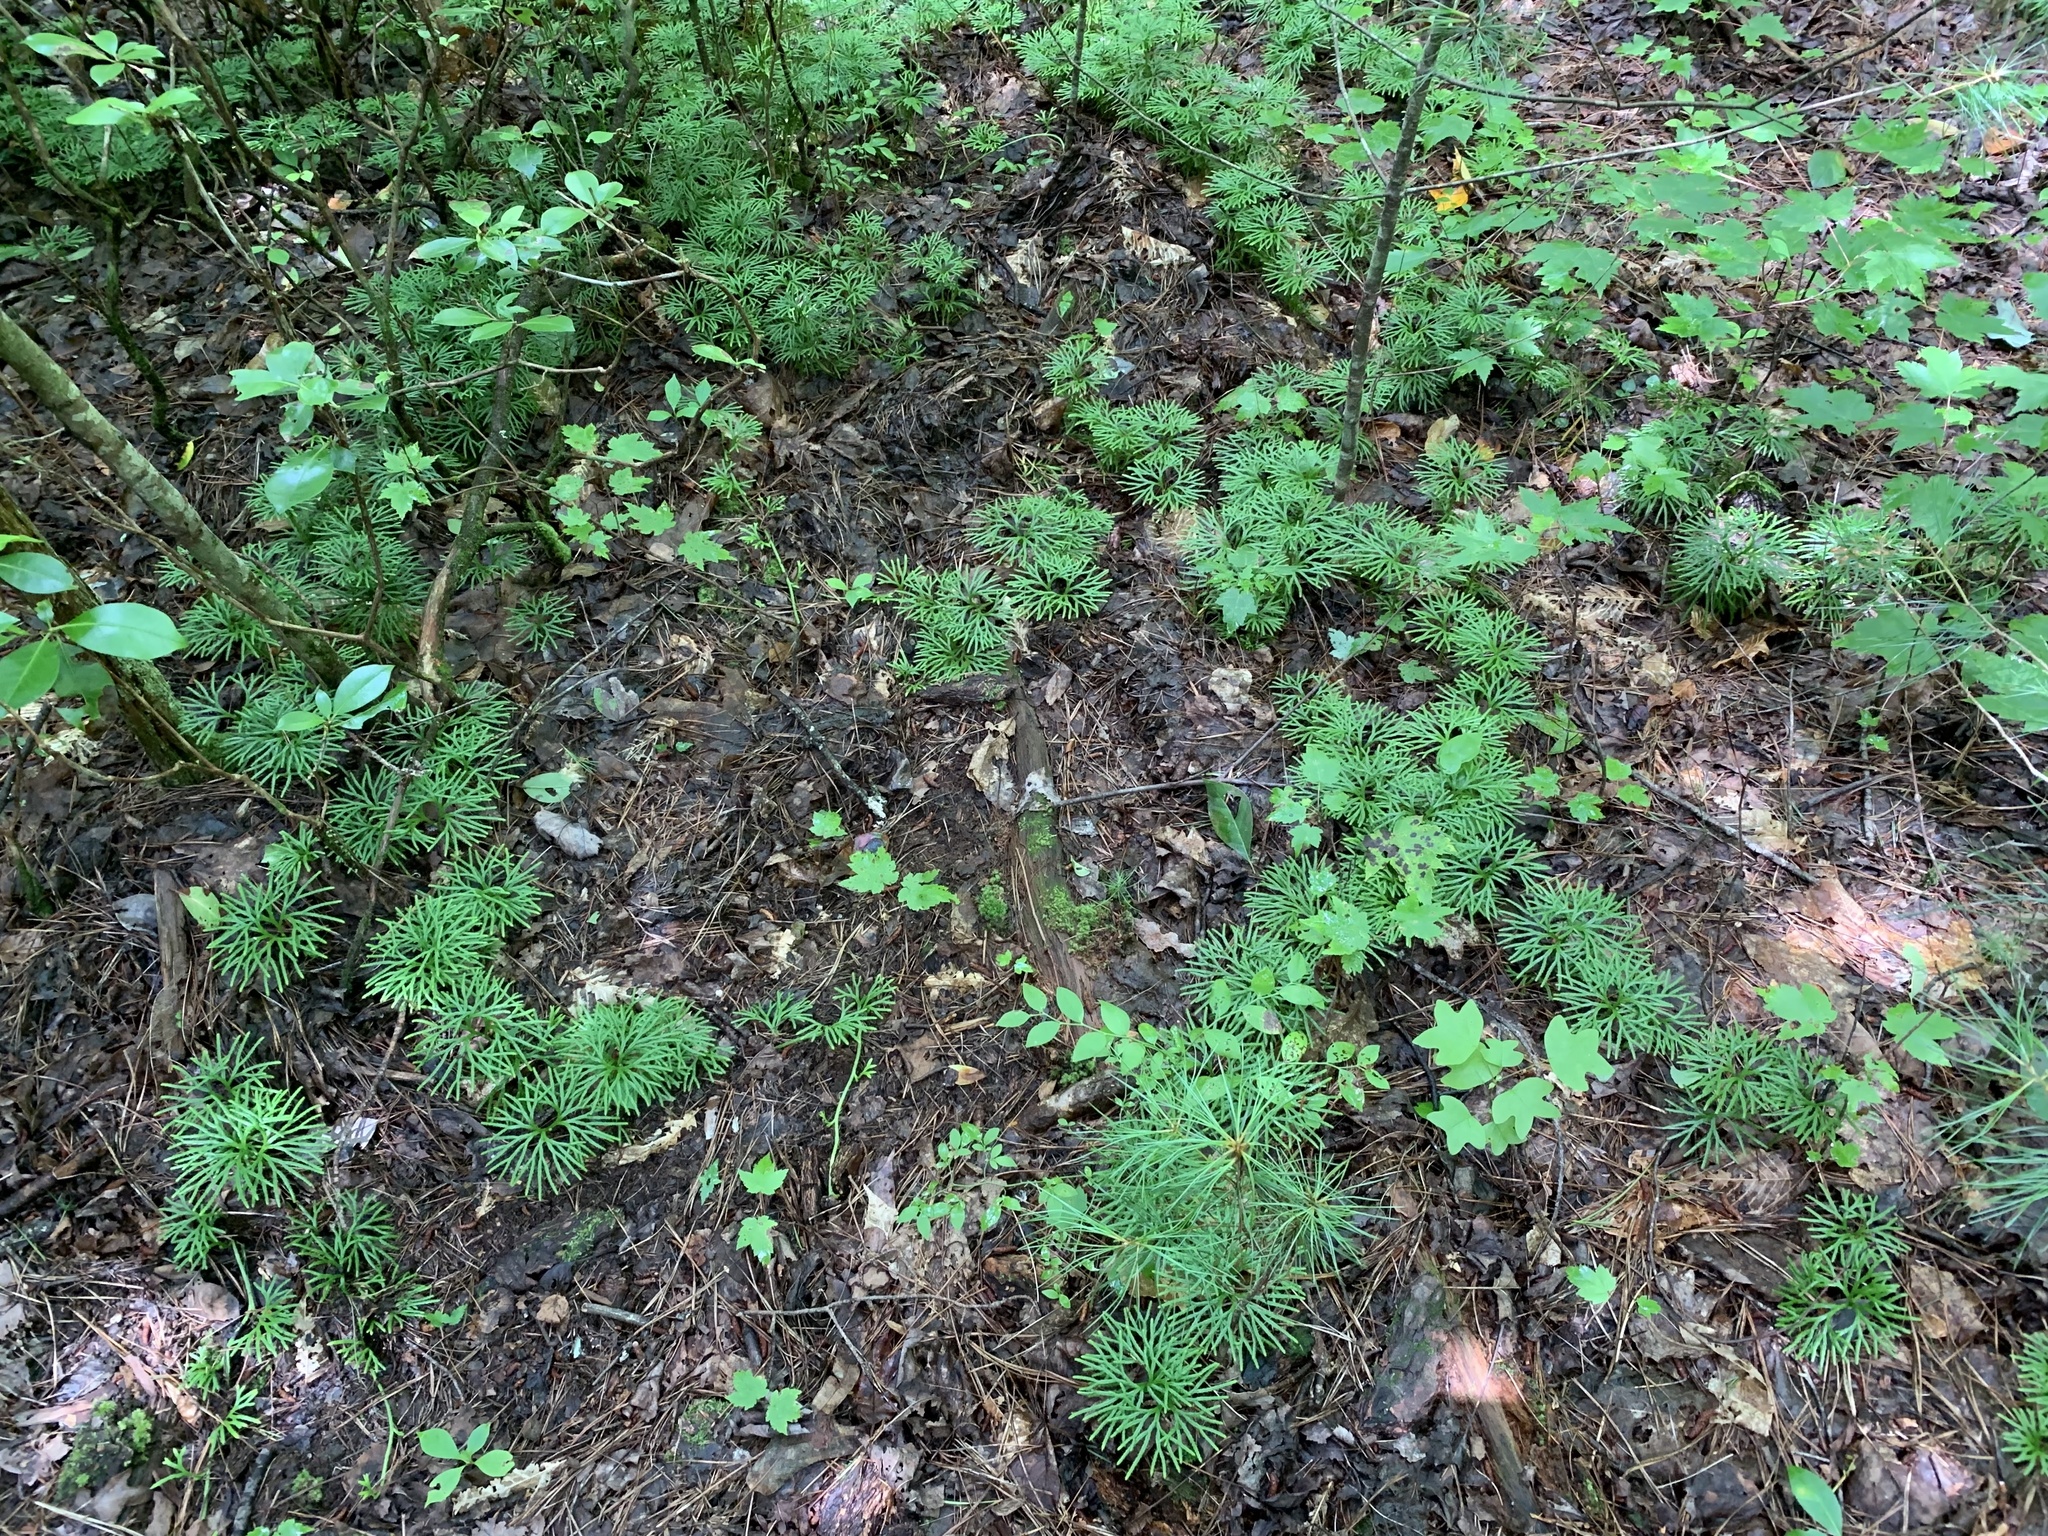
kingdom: Plantae
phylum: Tracheophyta
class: Lycopodiopsida
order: Lycopodiales
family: Lycopodiaceae
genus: Diphasiastrum
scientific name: Diphasiastrum digitatum
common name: Southern running-pine
